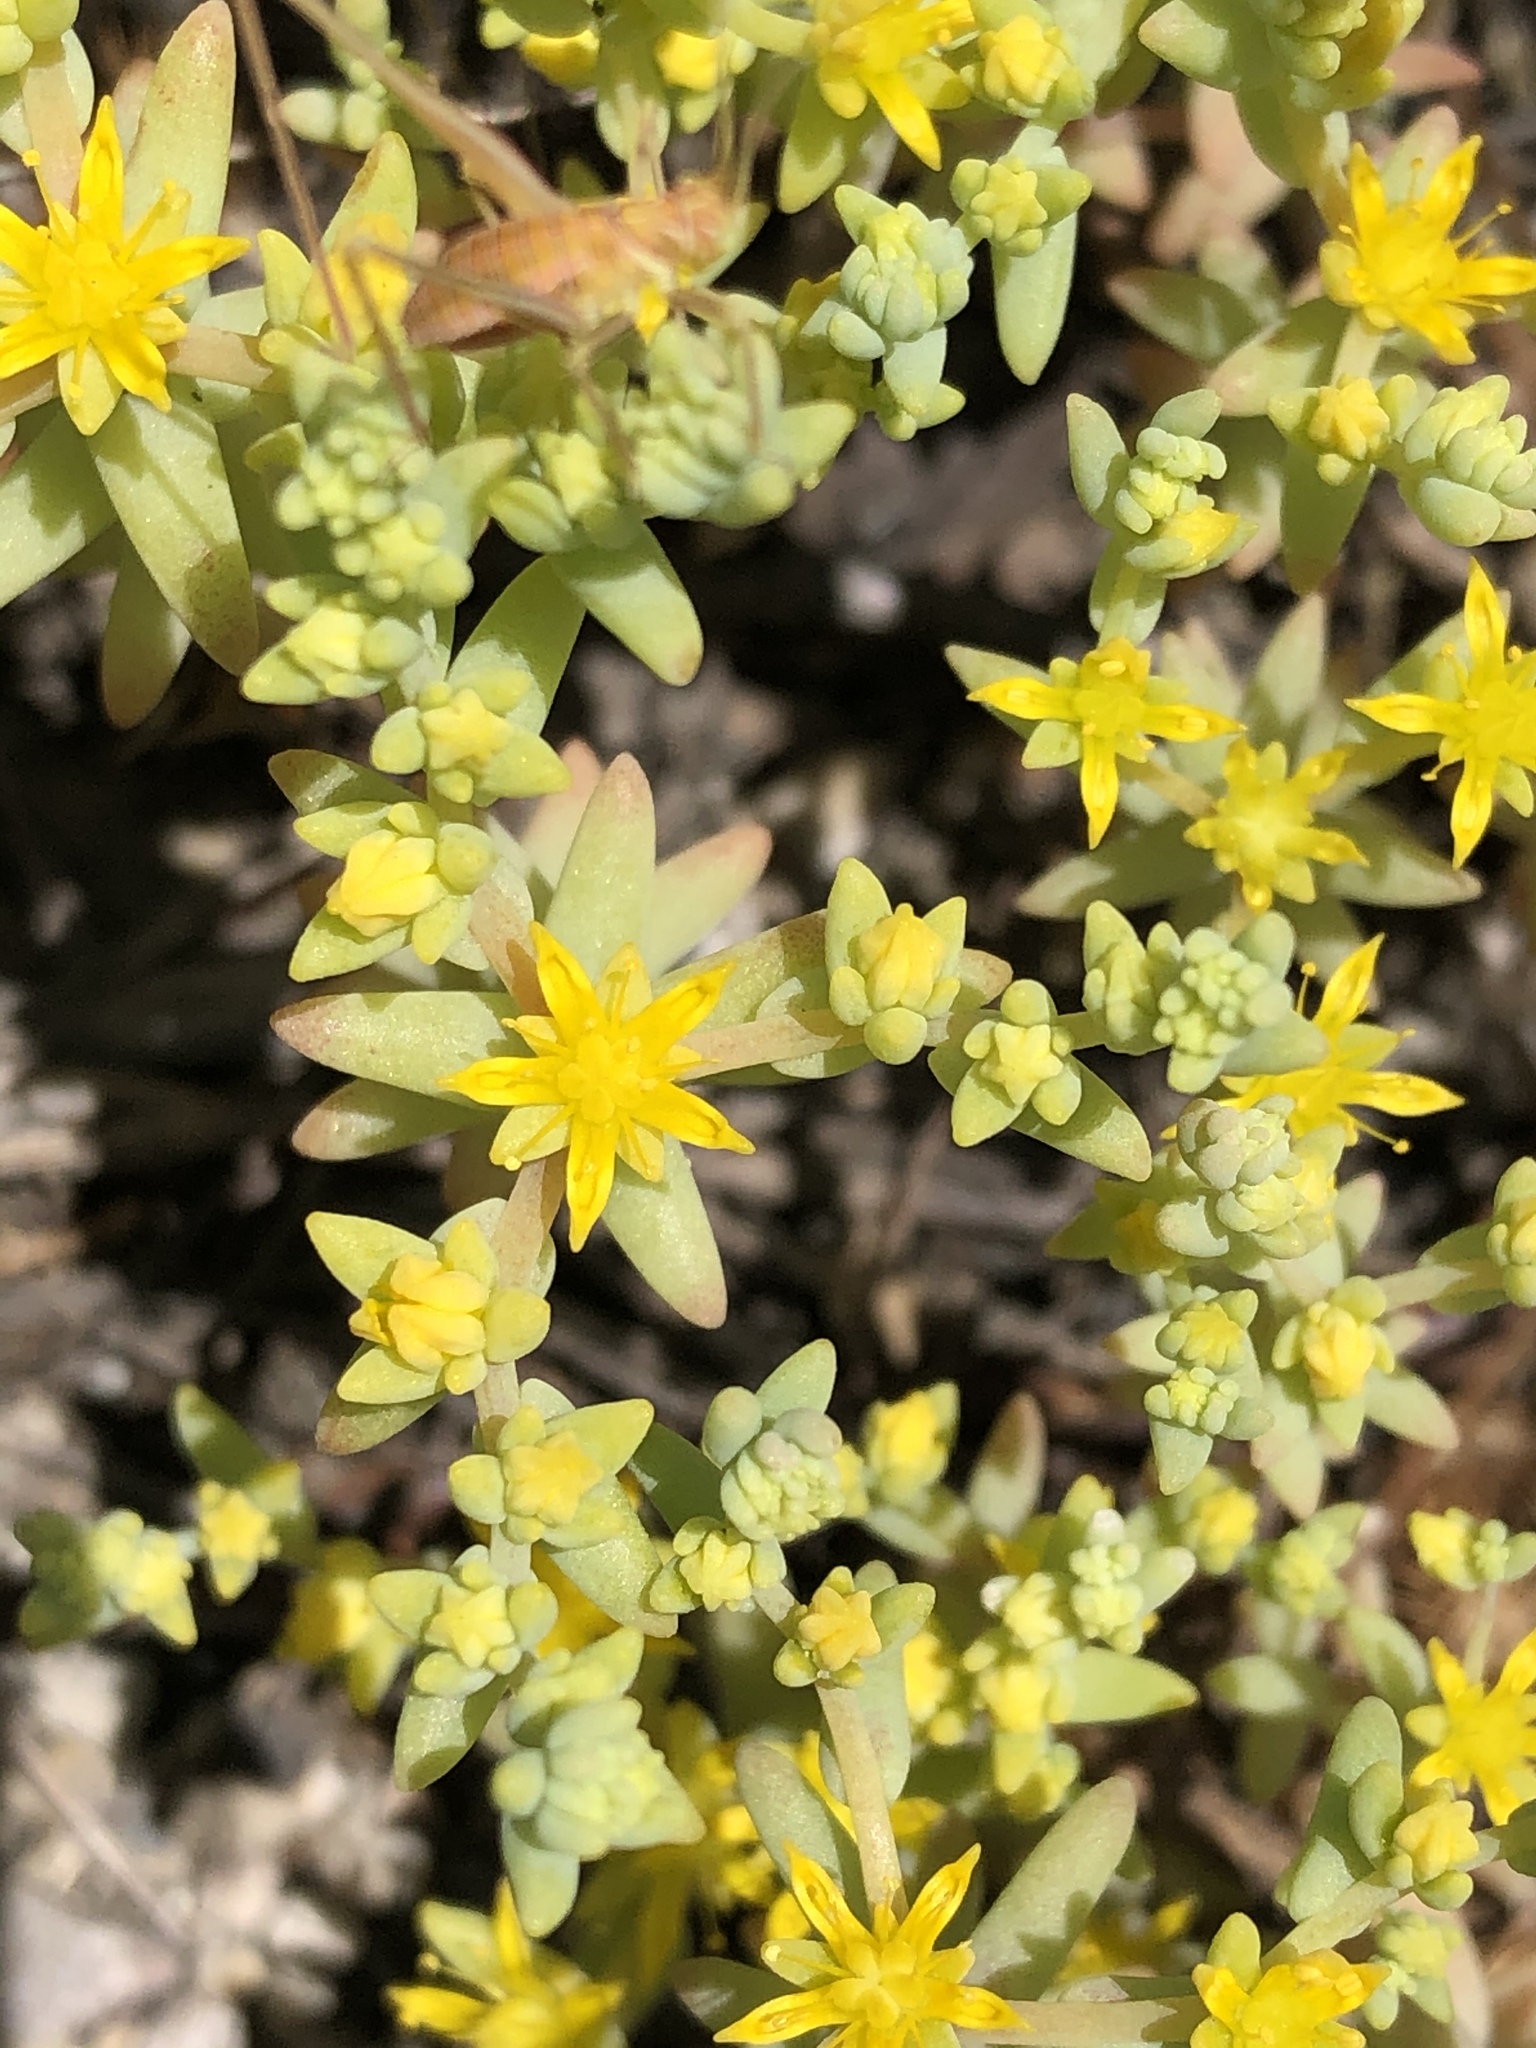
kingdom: Plantae
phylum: Tracheophyta
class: Magnoliopsida
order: Saxifragales
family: Crassulaceae
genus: Sedum
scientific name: Sedum nuttallii
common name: Yellow stonecrop
